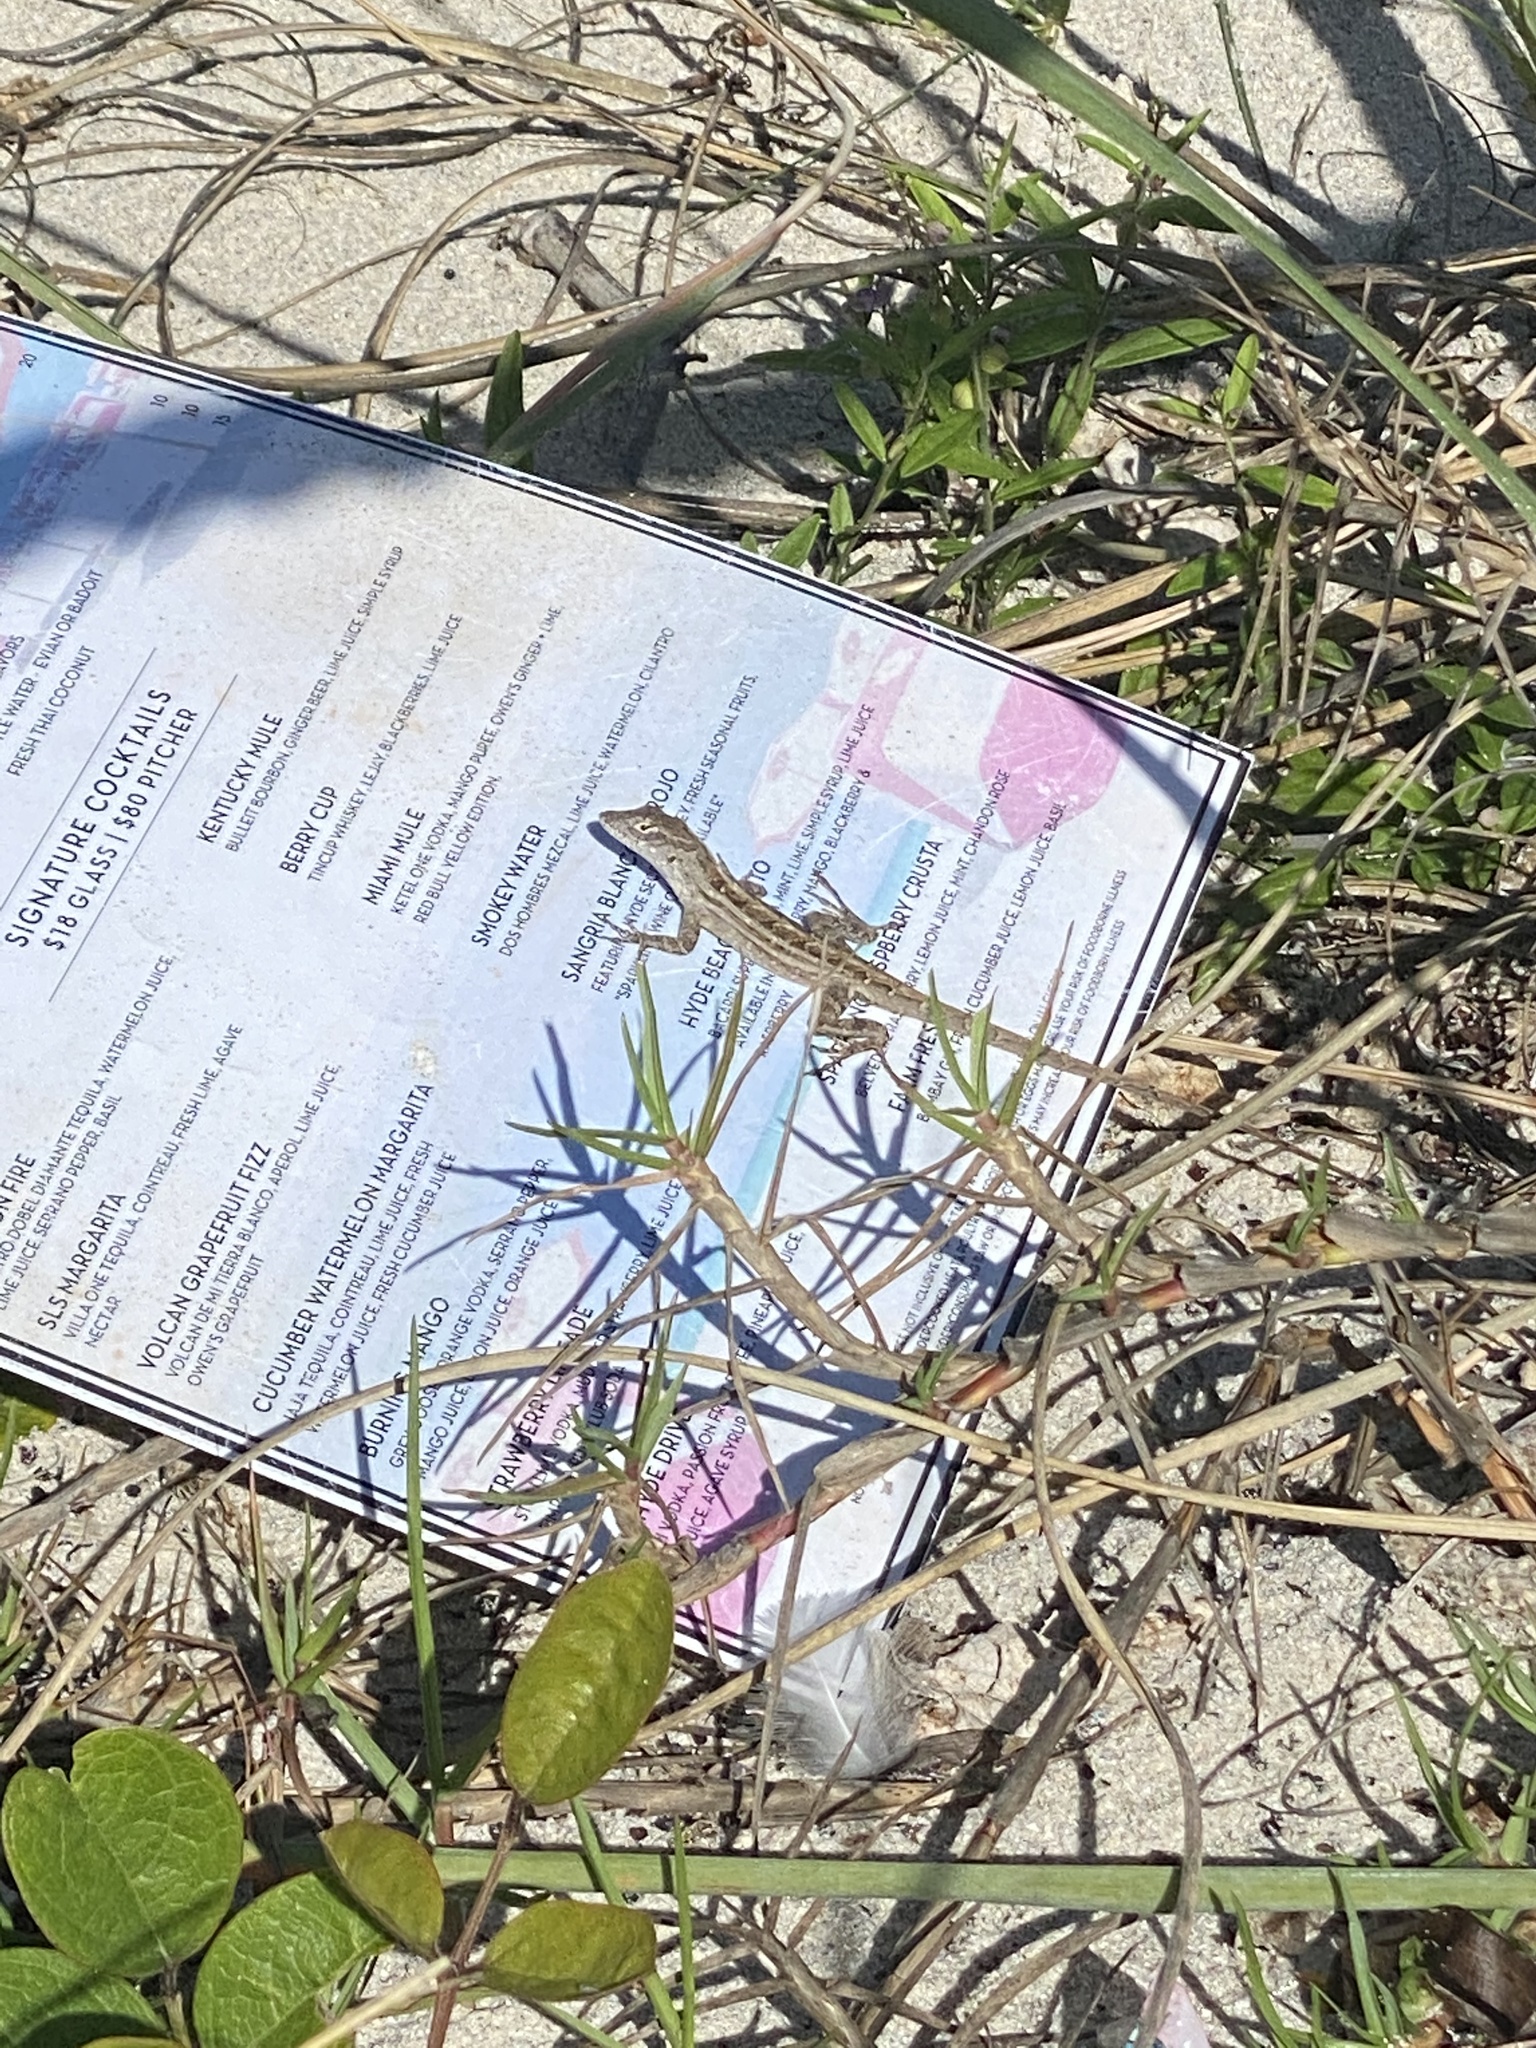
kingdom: Animalia
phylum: Chordata
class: Squamata
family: Dactyloidae
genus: Anolis
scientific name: Anolis sagrei
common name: Brown anole
